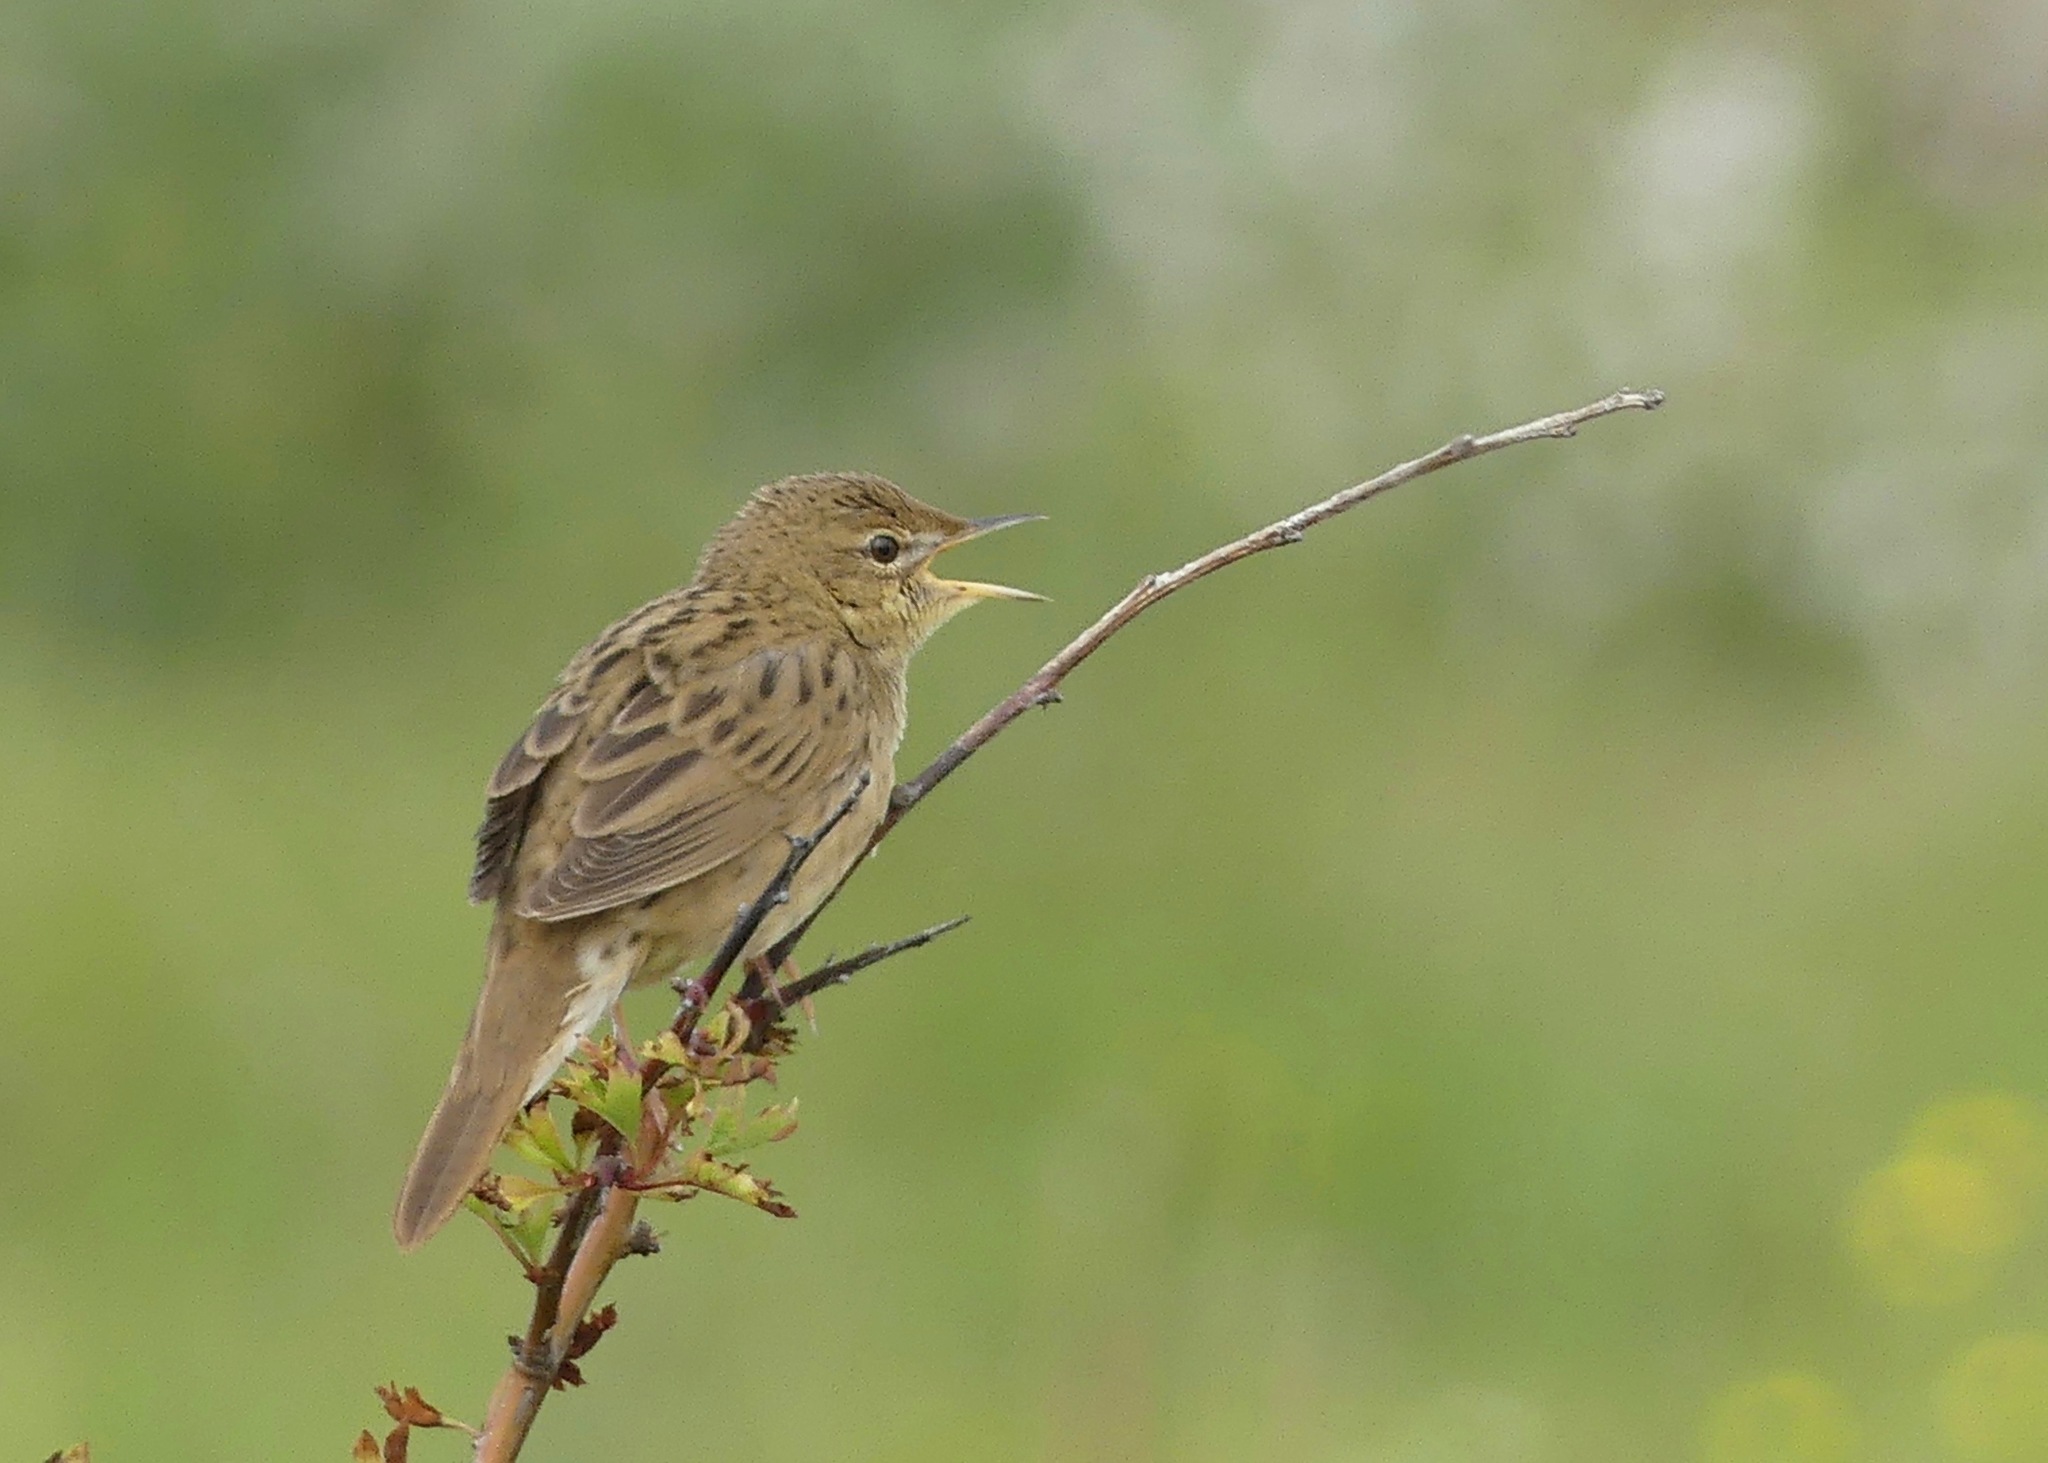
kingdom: Animalia
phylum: Chordata
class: Aves
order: Passeriformes
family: Locustellidae
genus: Locustella
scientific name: Locustella naevia
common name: Common grasshopper warbler
